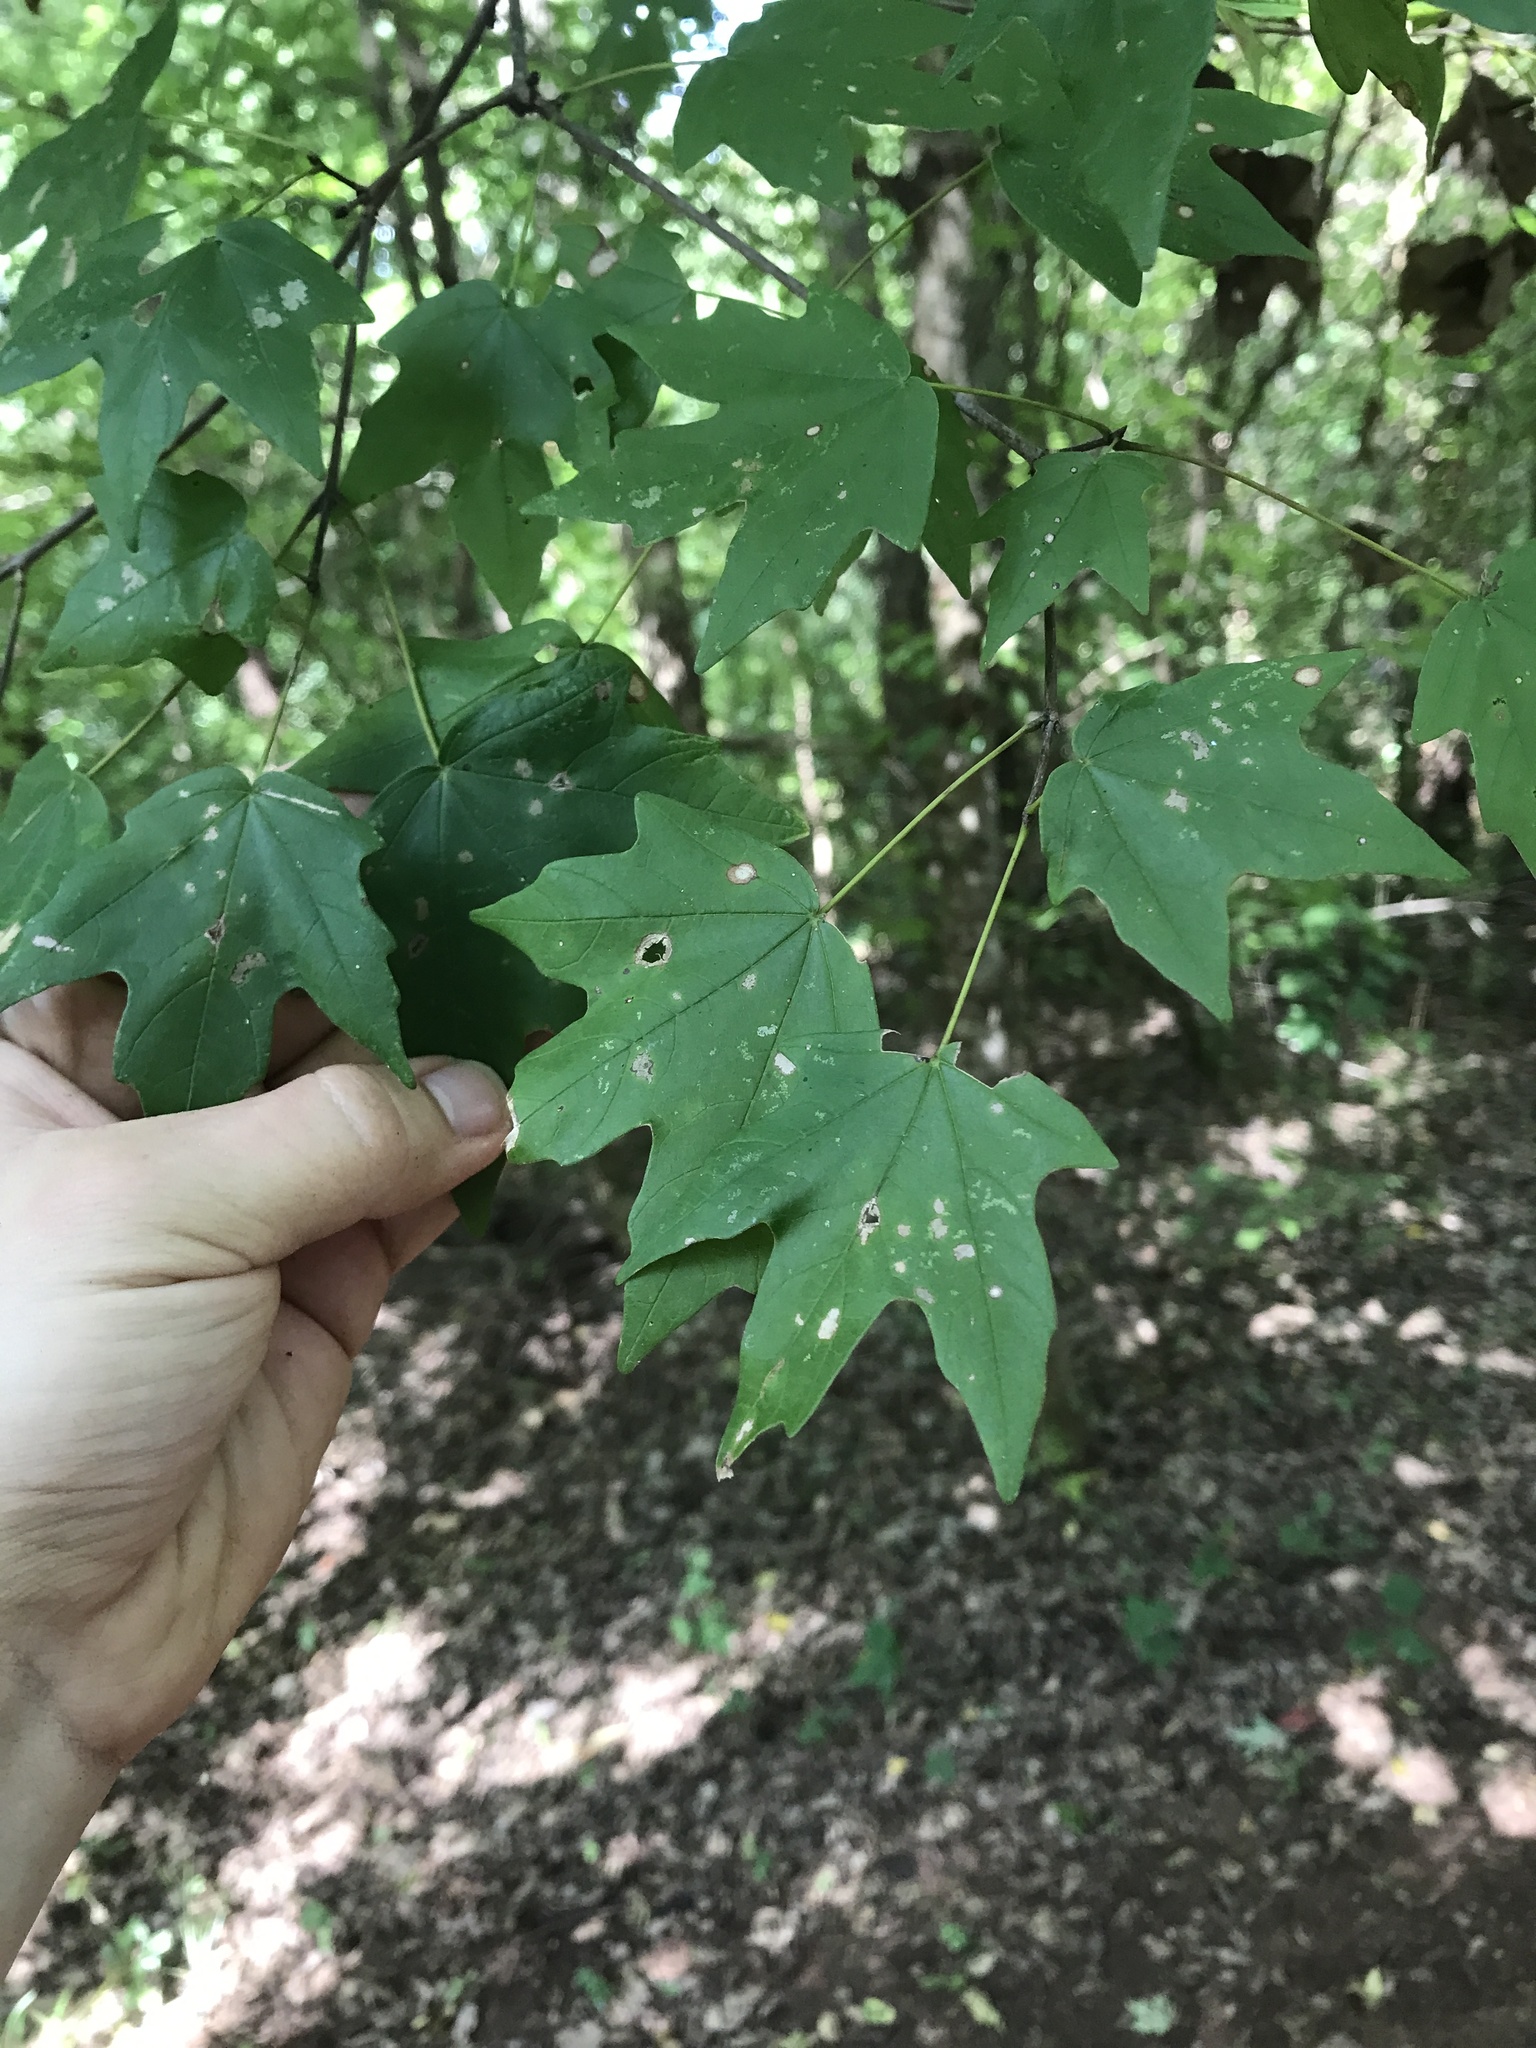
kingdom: Plantae
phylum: Tracheophyta
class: Magnoliopsida
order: Sapindales
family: Sapindaceae
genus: Acer
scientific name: Acer floridanum
